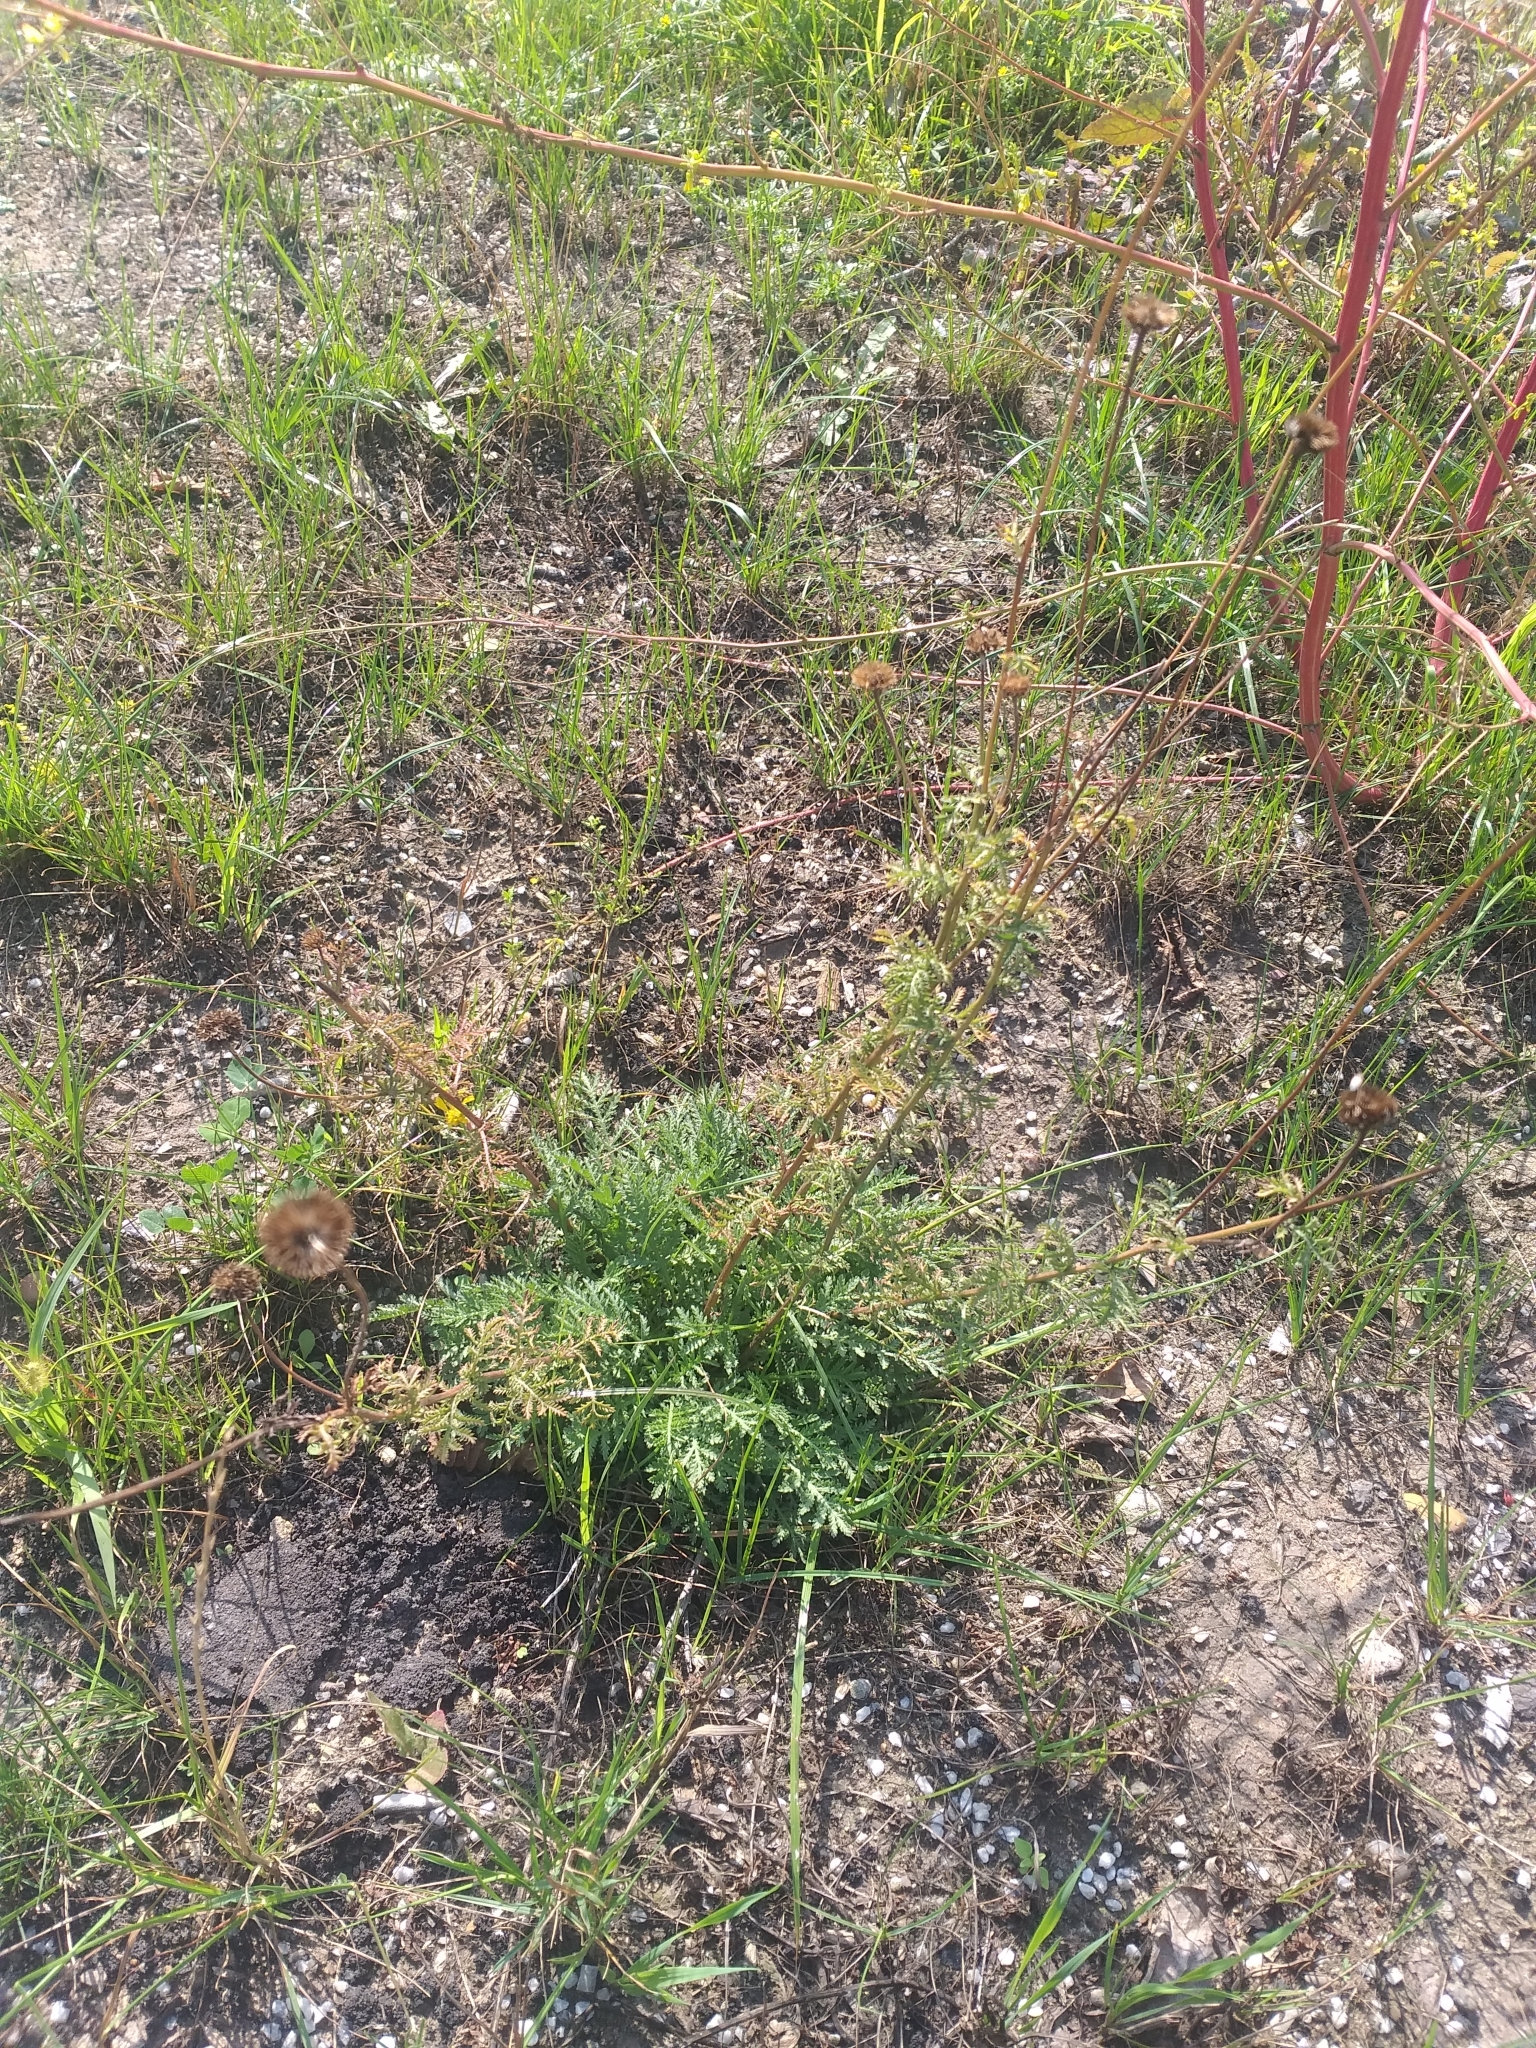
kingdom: Plantae
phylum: Tracheophyta
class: Magnoliopsida
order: Asterales
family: Asteraceae
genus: Cota
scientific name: Cota tinctoria
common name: Golden chamomile
